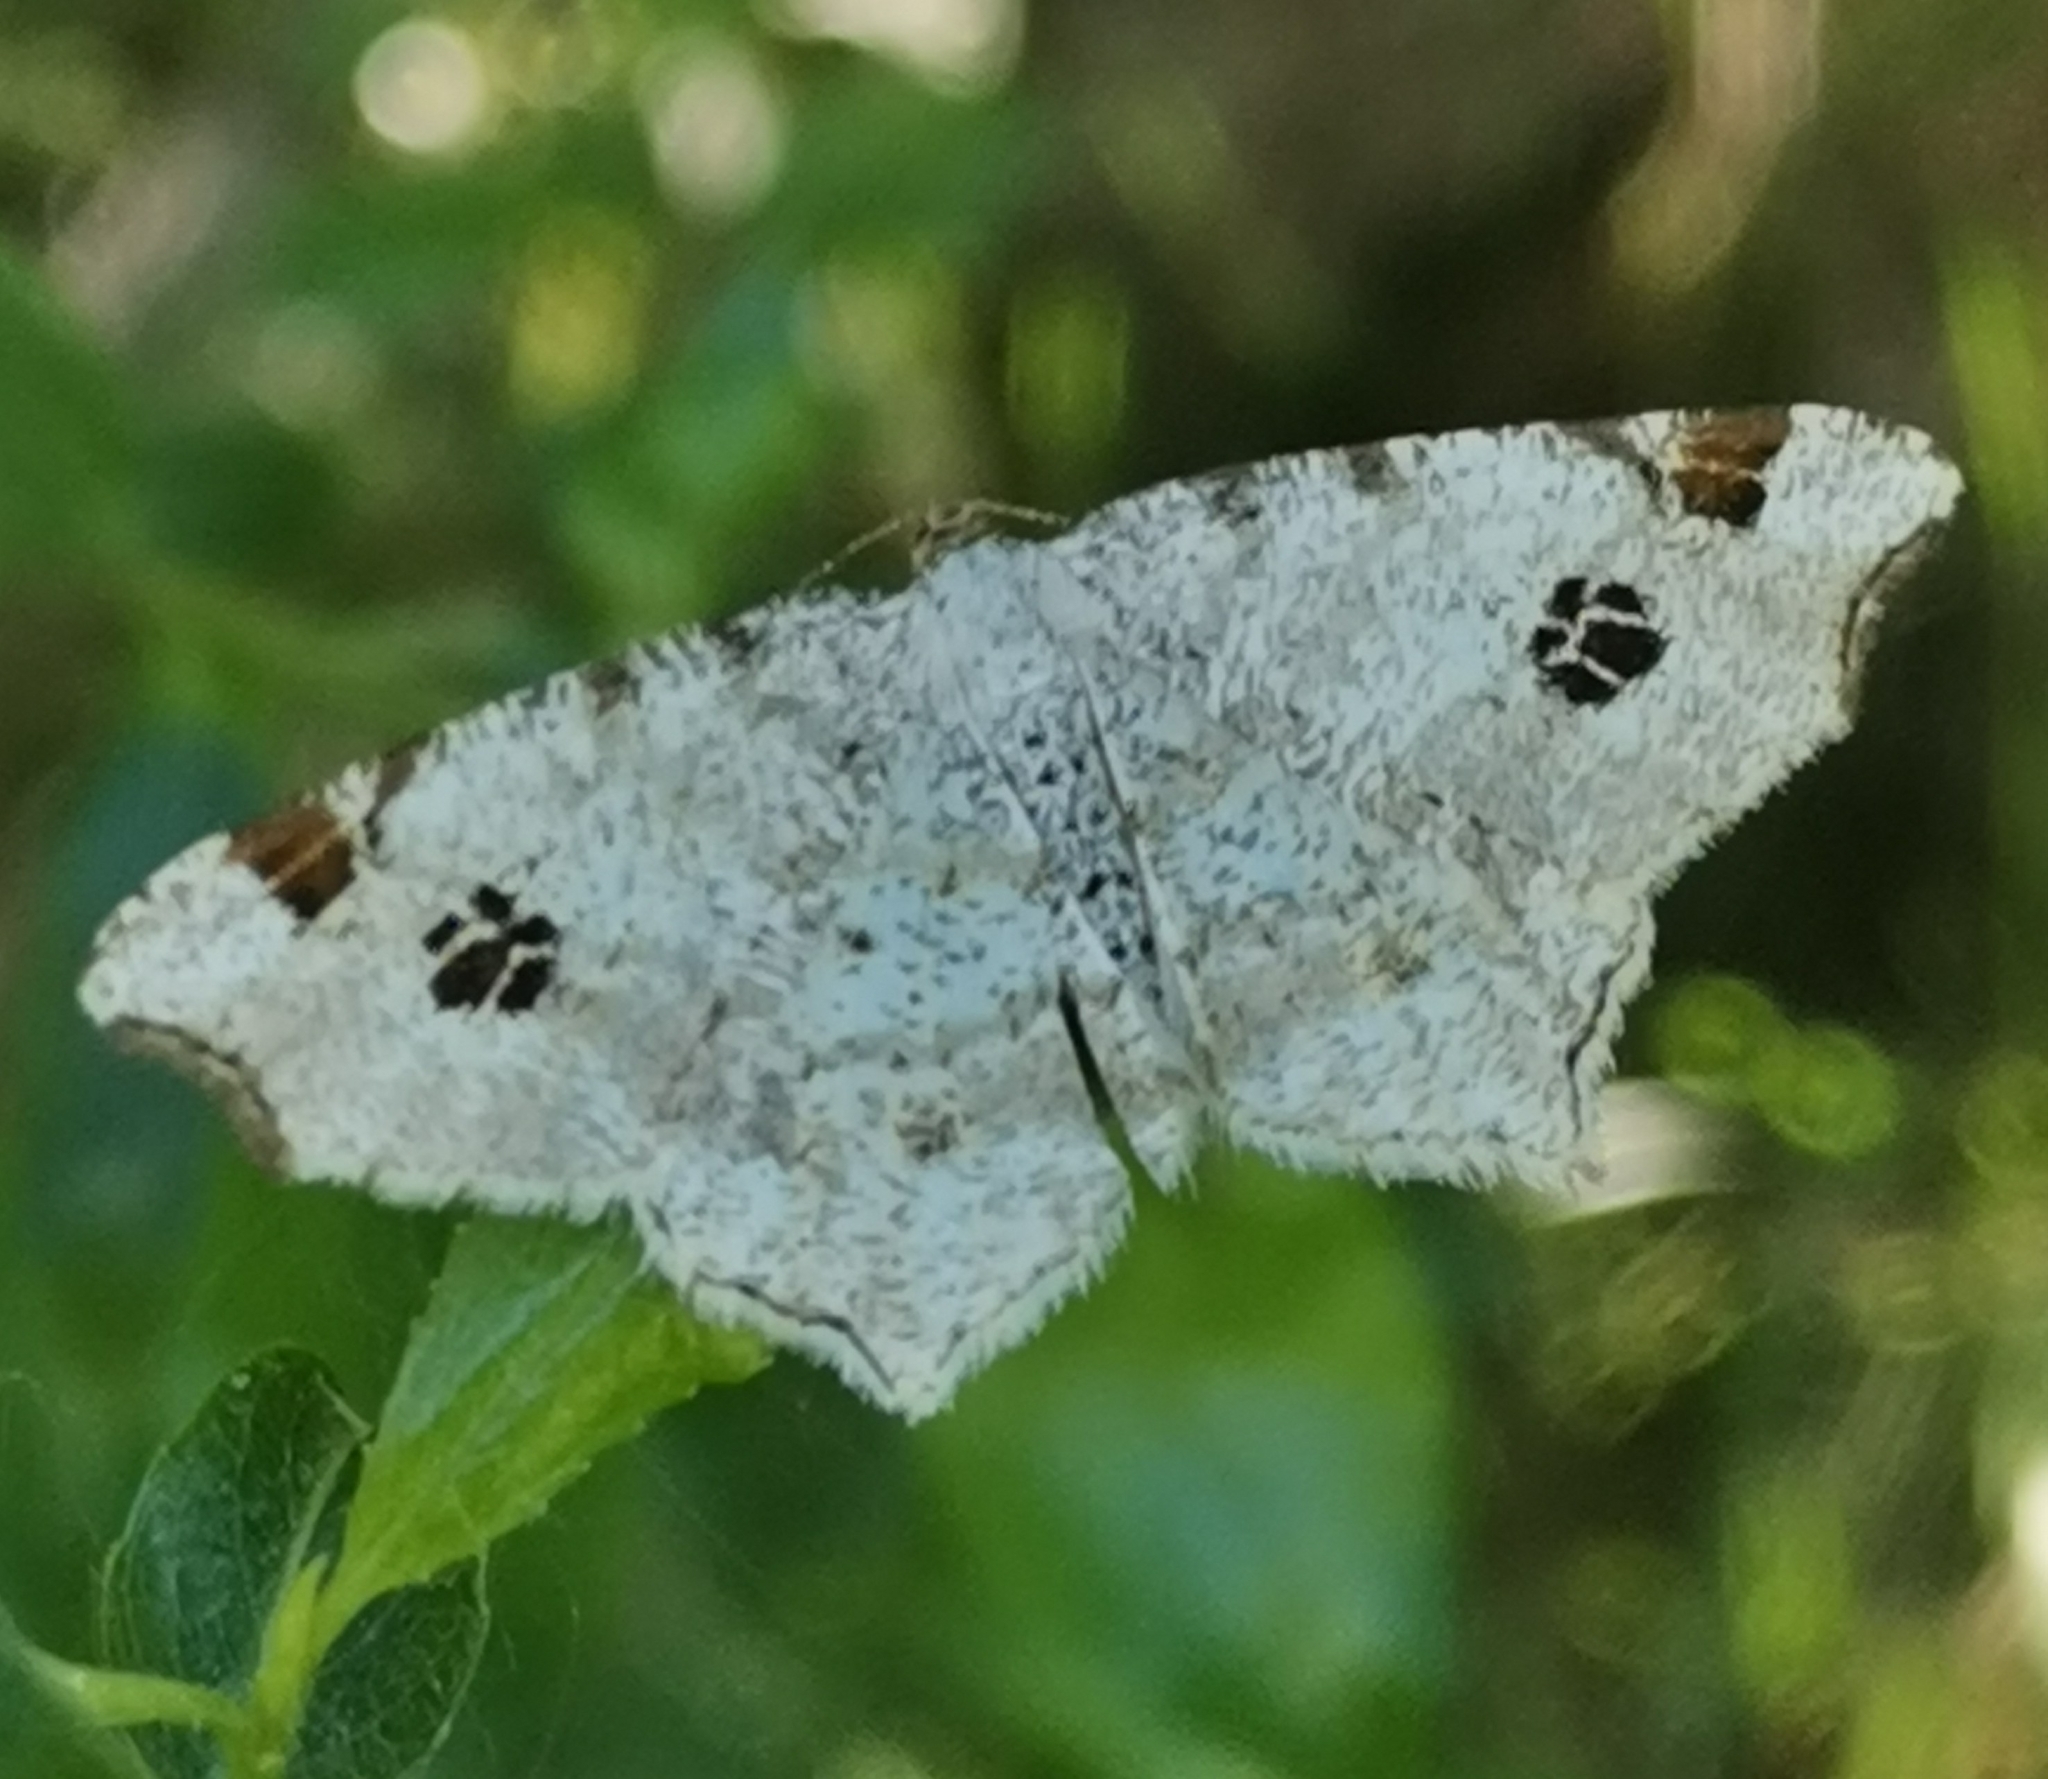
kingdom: Animalia
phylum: Arthropoda
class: Insecta
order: Lepidoptera
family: Geometridae
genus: Macaria
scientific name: Macaria notata
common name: Peacock moth
